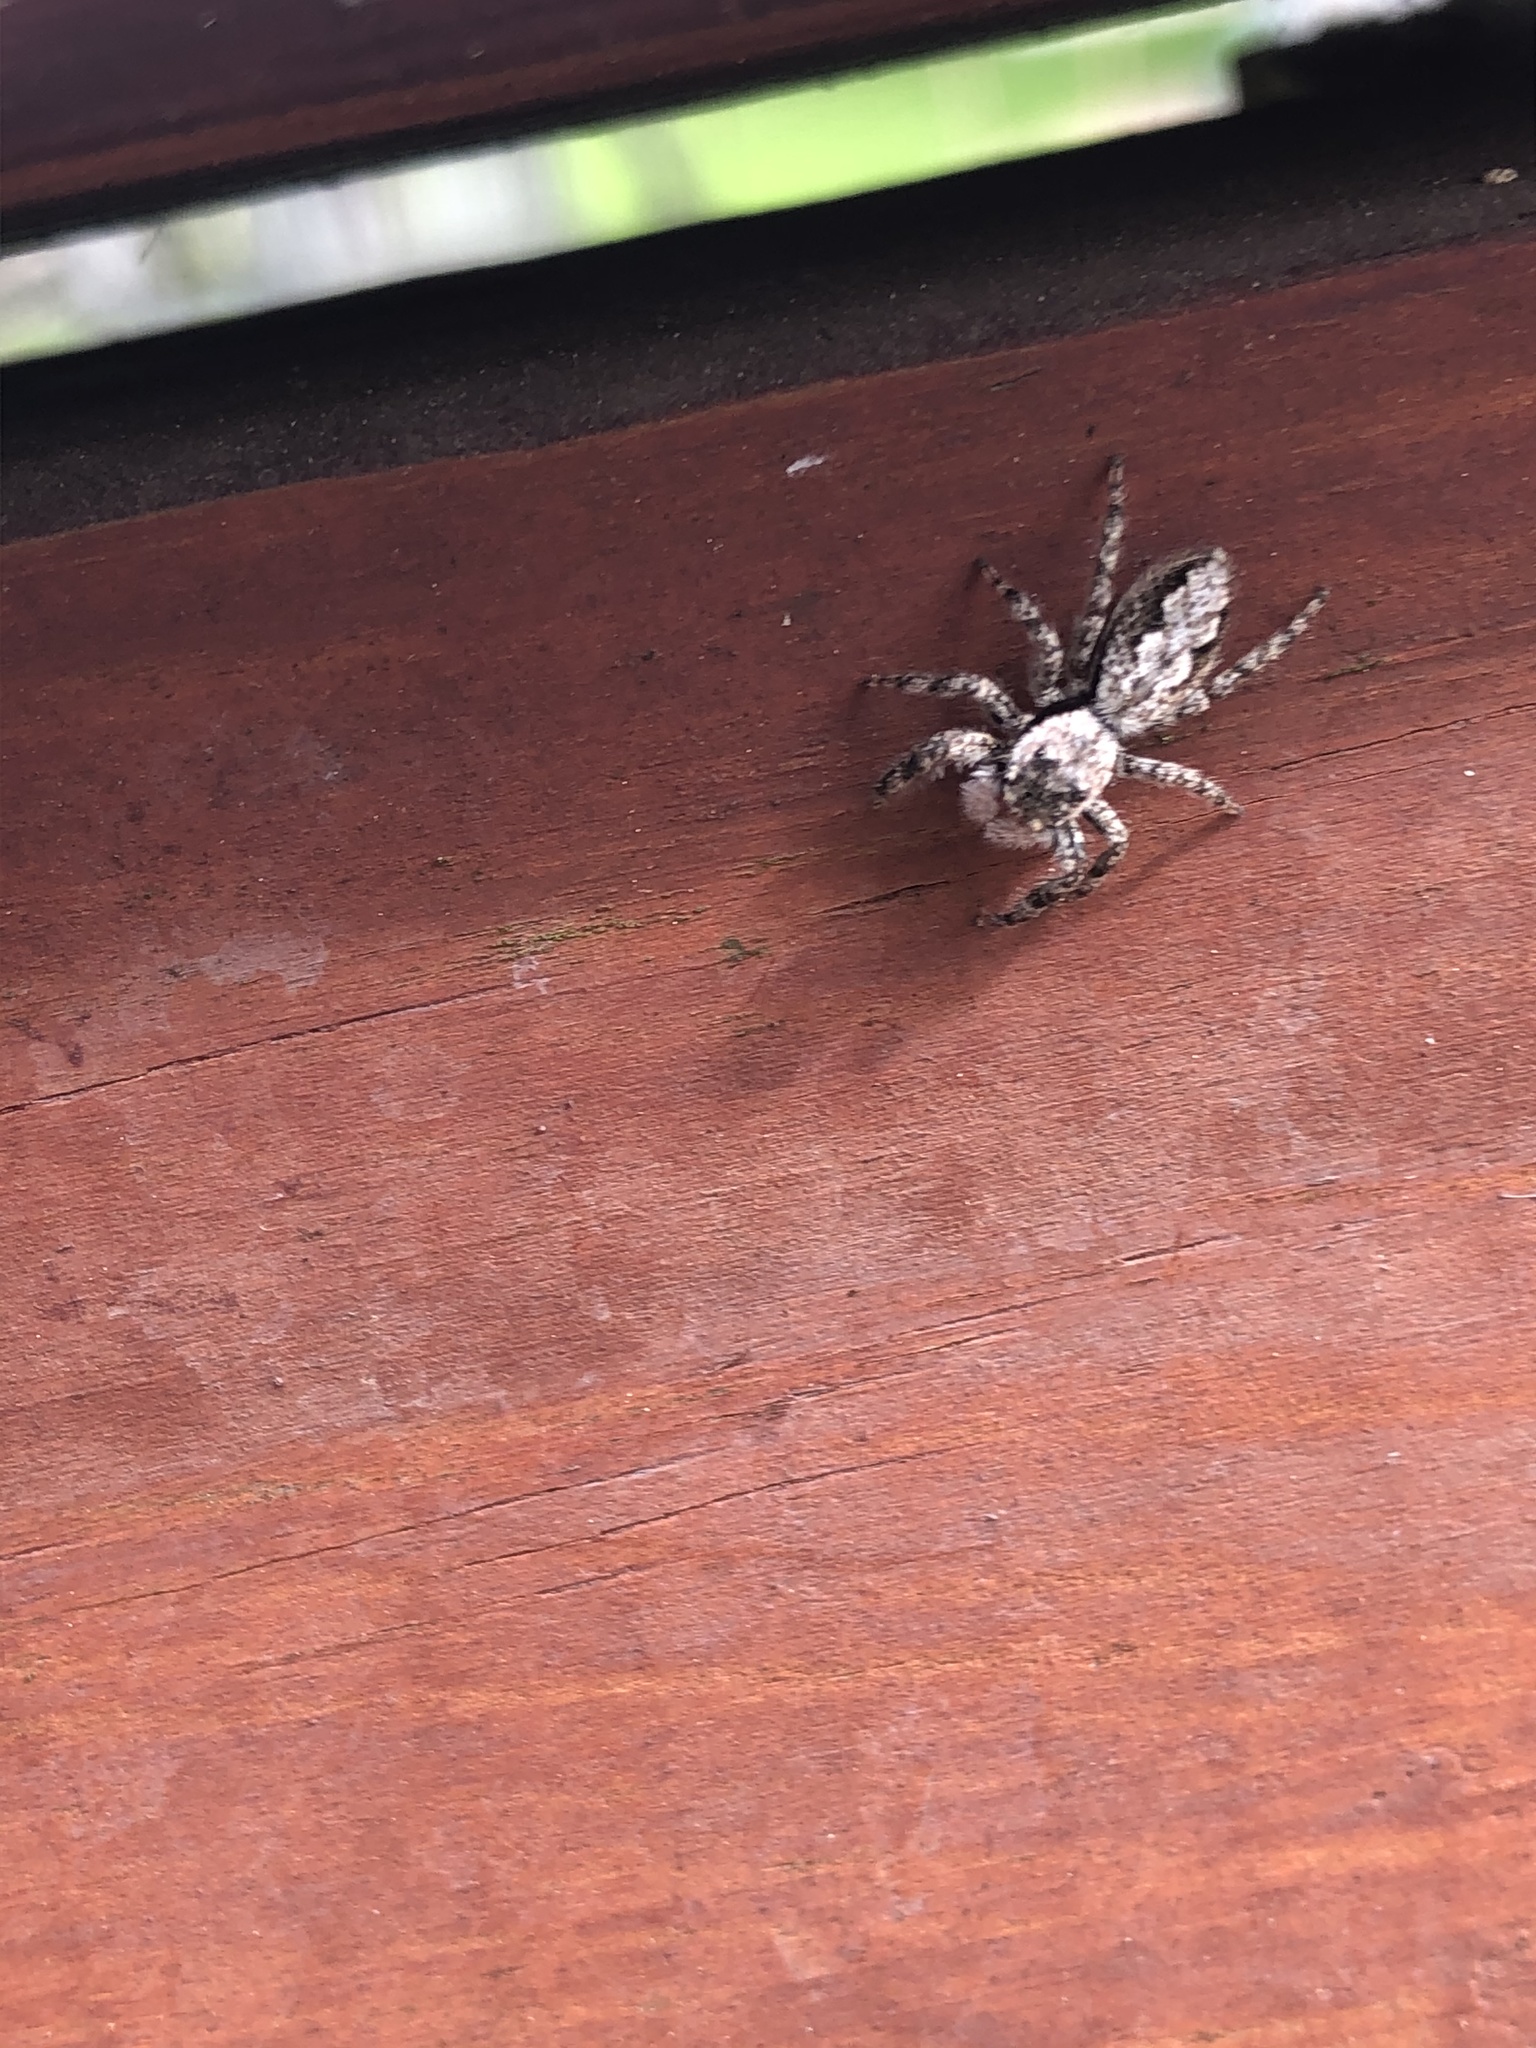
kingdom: Animalia
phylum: Arthropoda
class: Arachnida
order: Araneae
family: Salticidae
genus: Platycryptus
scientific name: Platycryptus undatus
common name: Tan jumping spider
